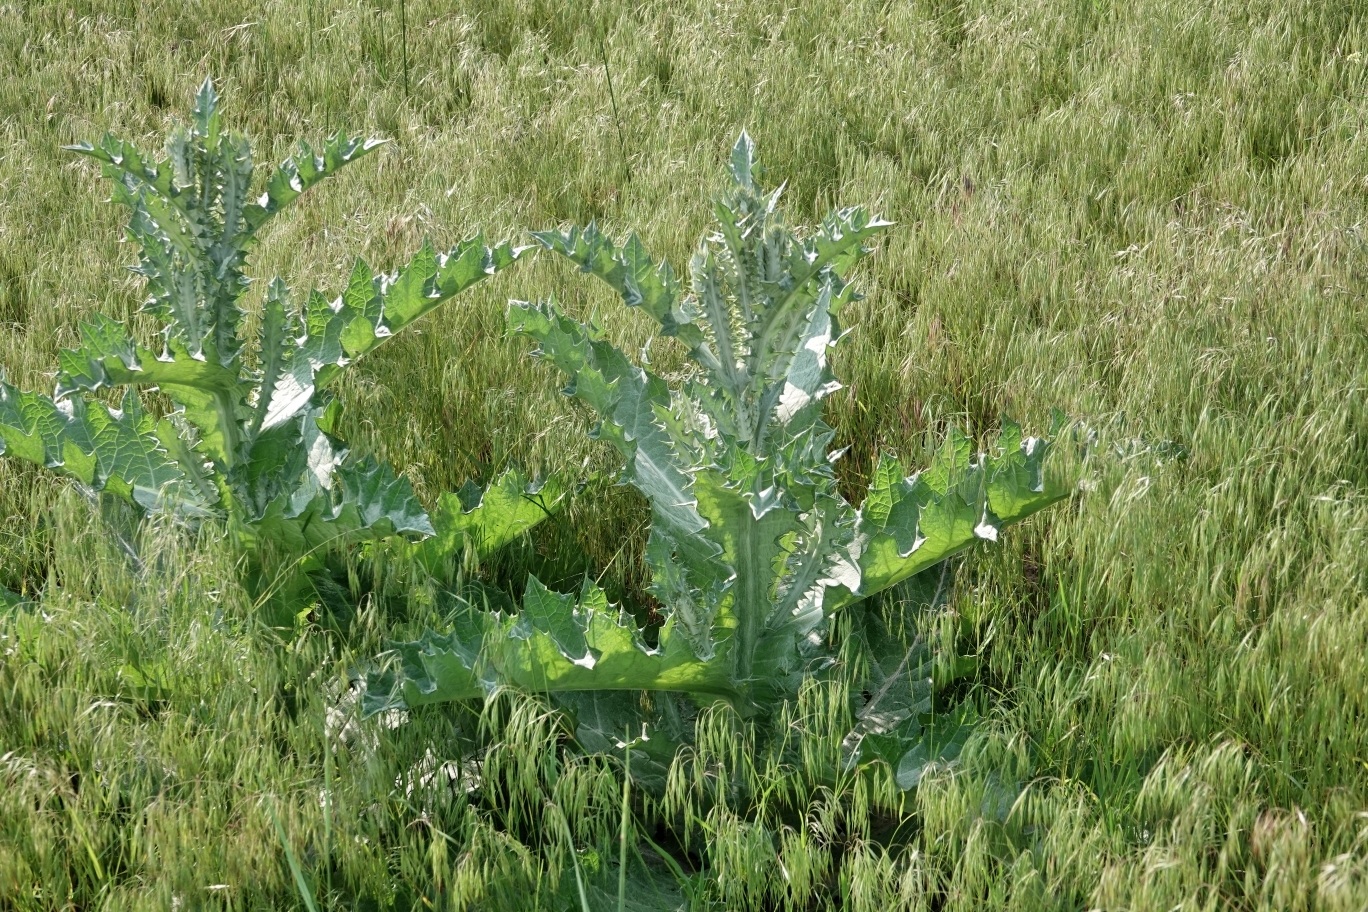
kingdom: Plantae
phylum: Tracheophyta
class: Magnoliopsida
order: Asterales
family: Asteraceae
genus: Onopordum
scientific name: Onopordum acanthium
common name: Scotch thistle
